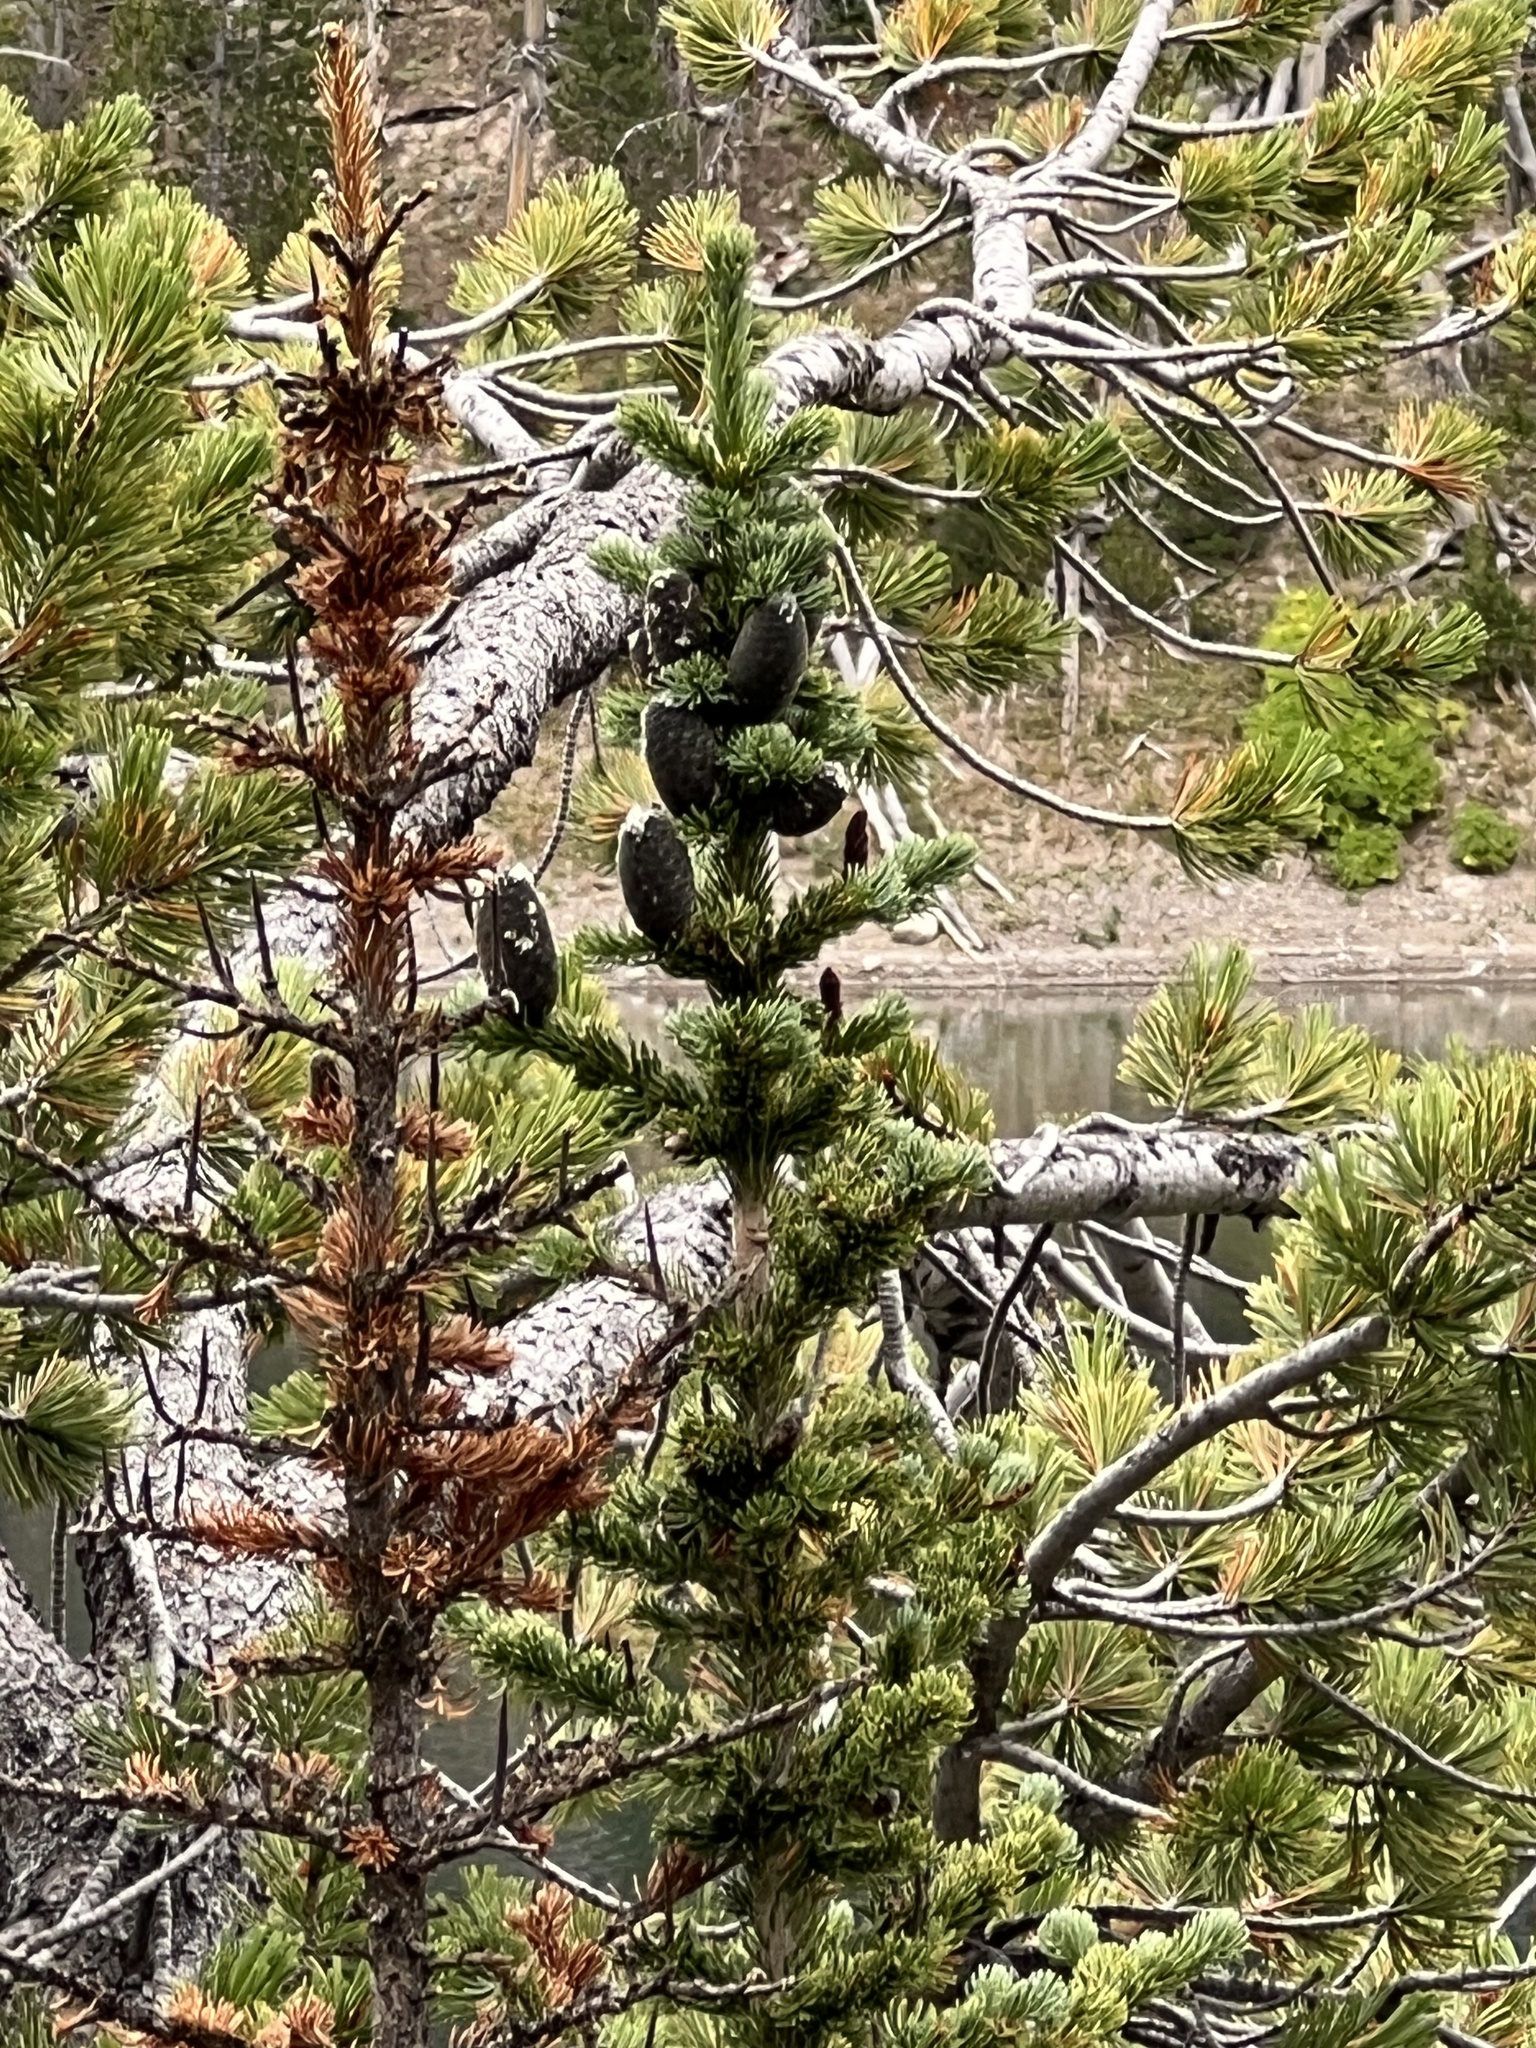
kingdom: Plantae
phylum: Tracheophyta
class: Pinopsida
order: Pinales
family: Pinaceae
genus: Abies
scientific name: Abies lasiocarpa
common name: Subalpine fir
